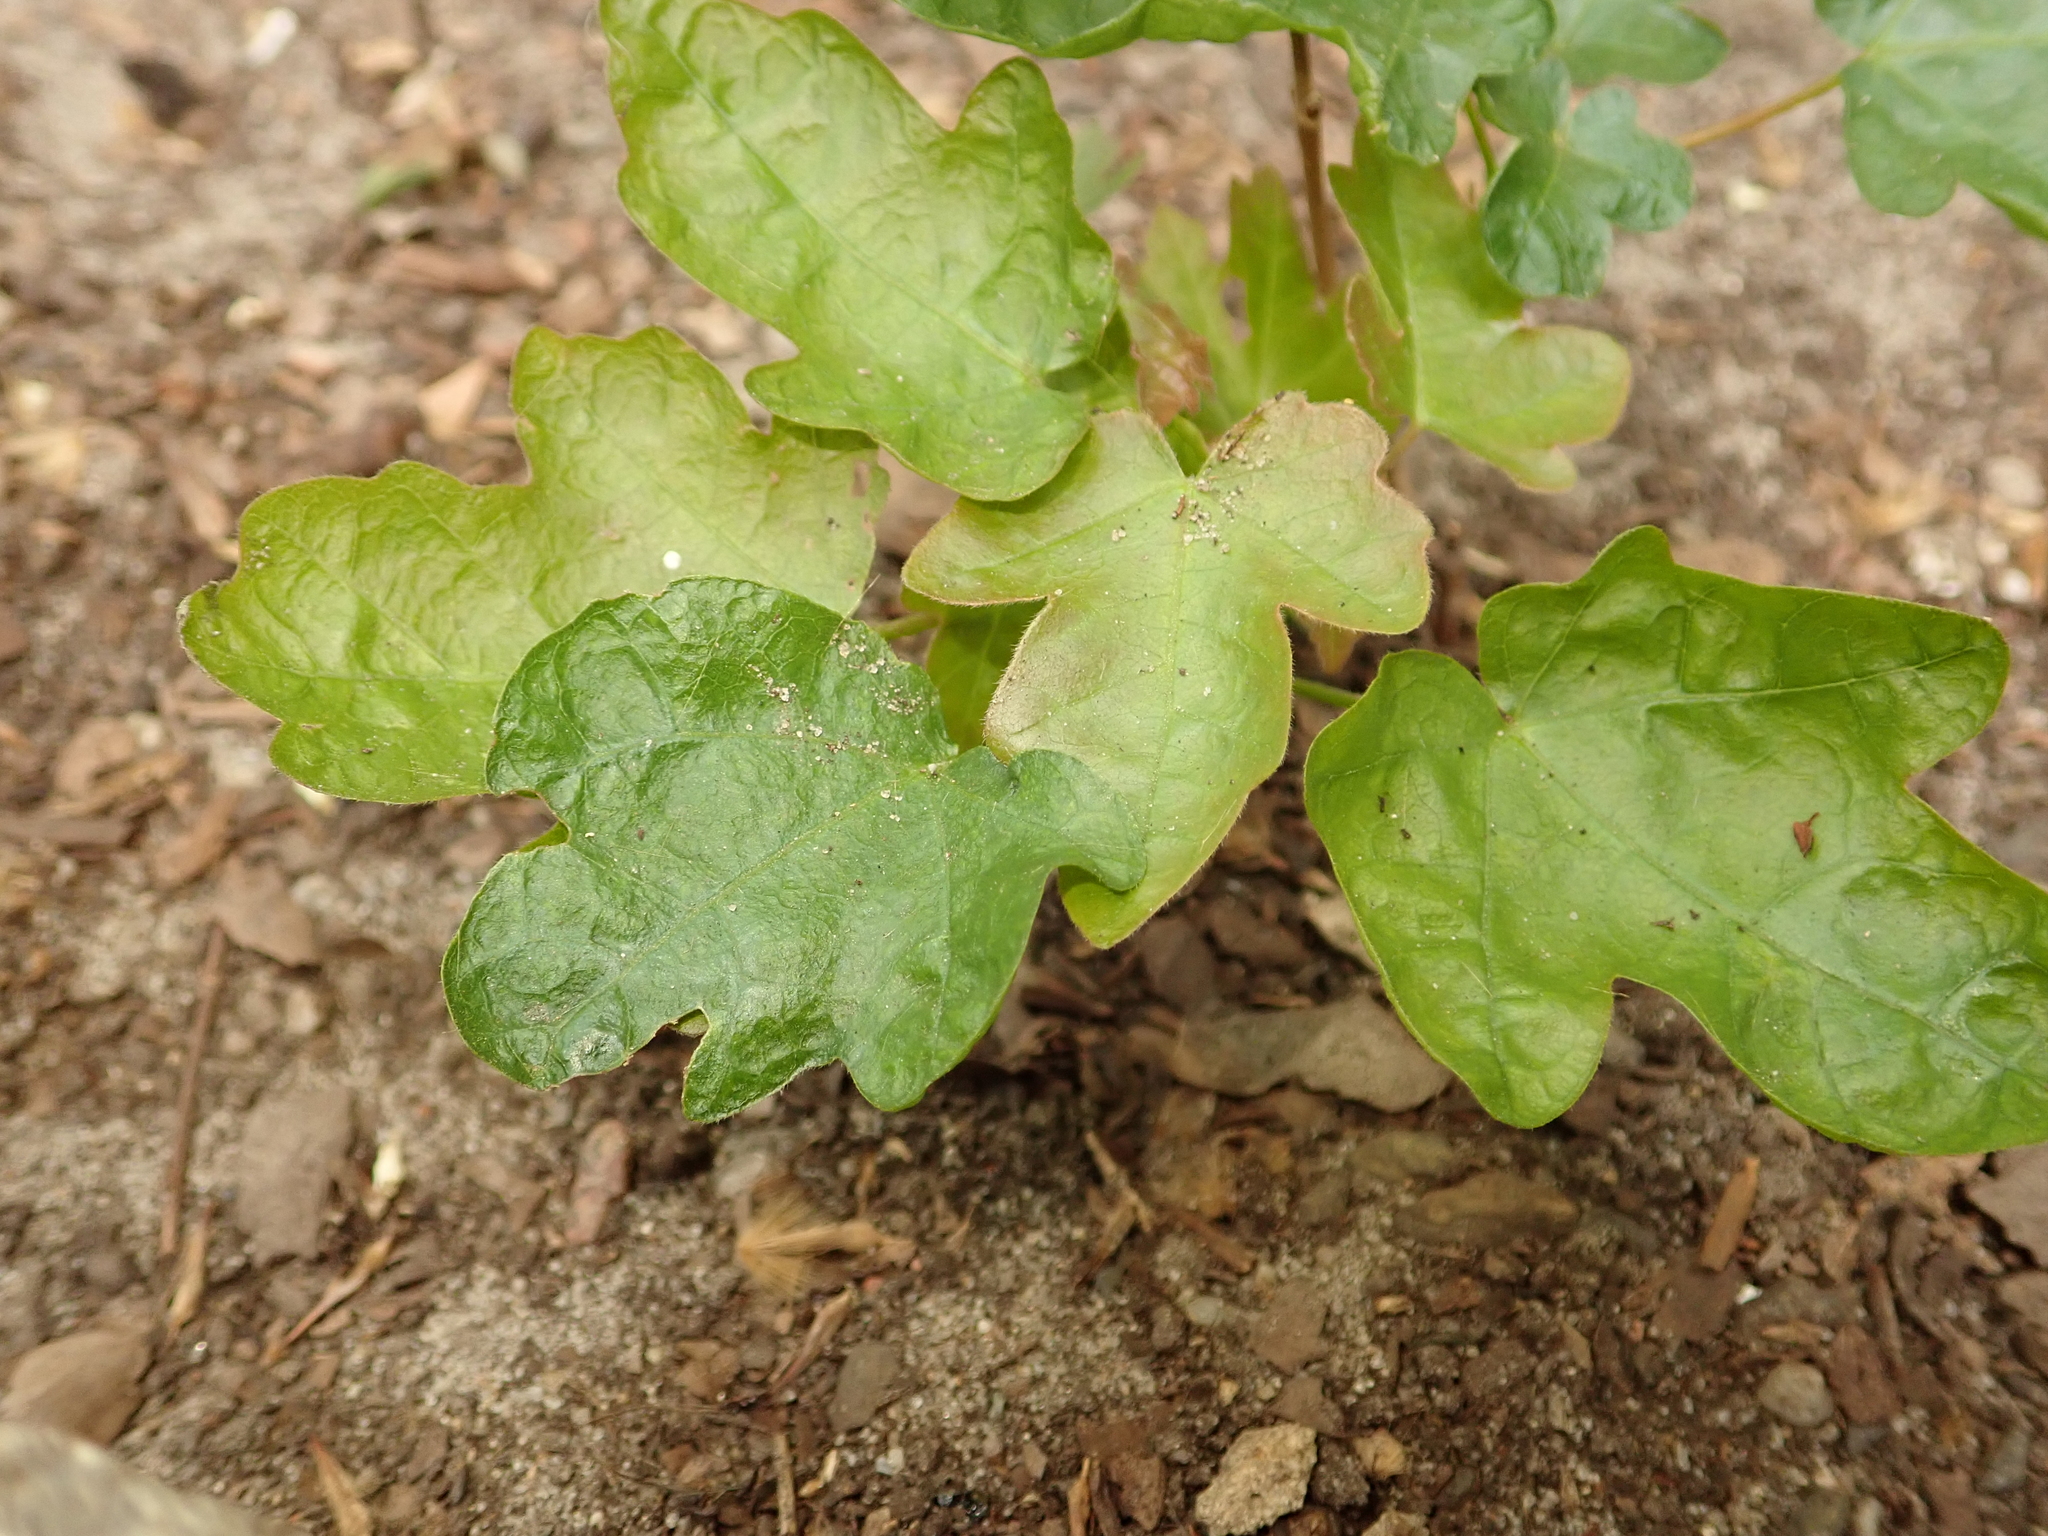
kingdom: Plantae
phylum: Tracheophyta
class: Magnoliopsida
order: Sapindales
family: Sapindaceae
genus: Acer
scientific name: Acer campestre
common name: Field maple
